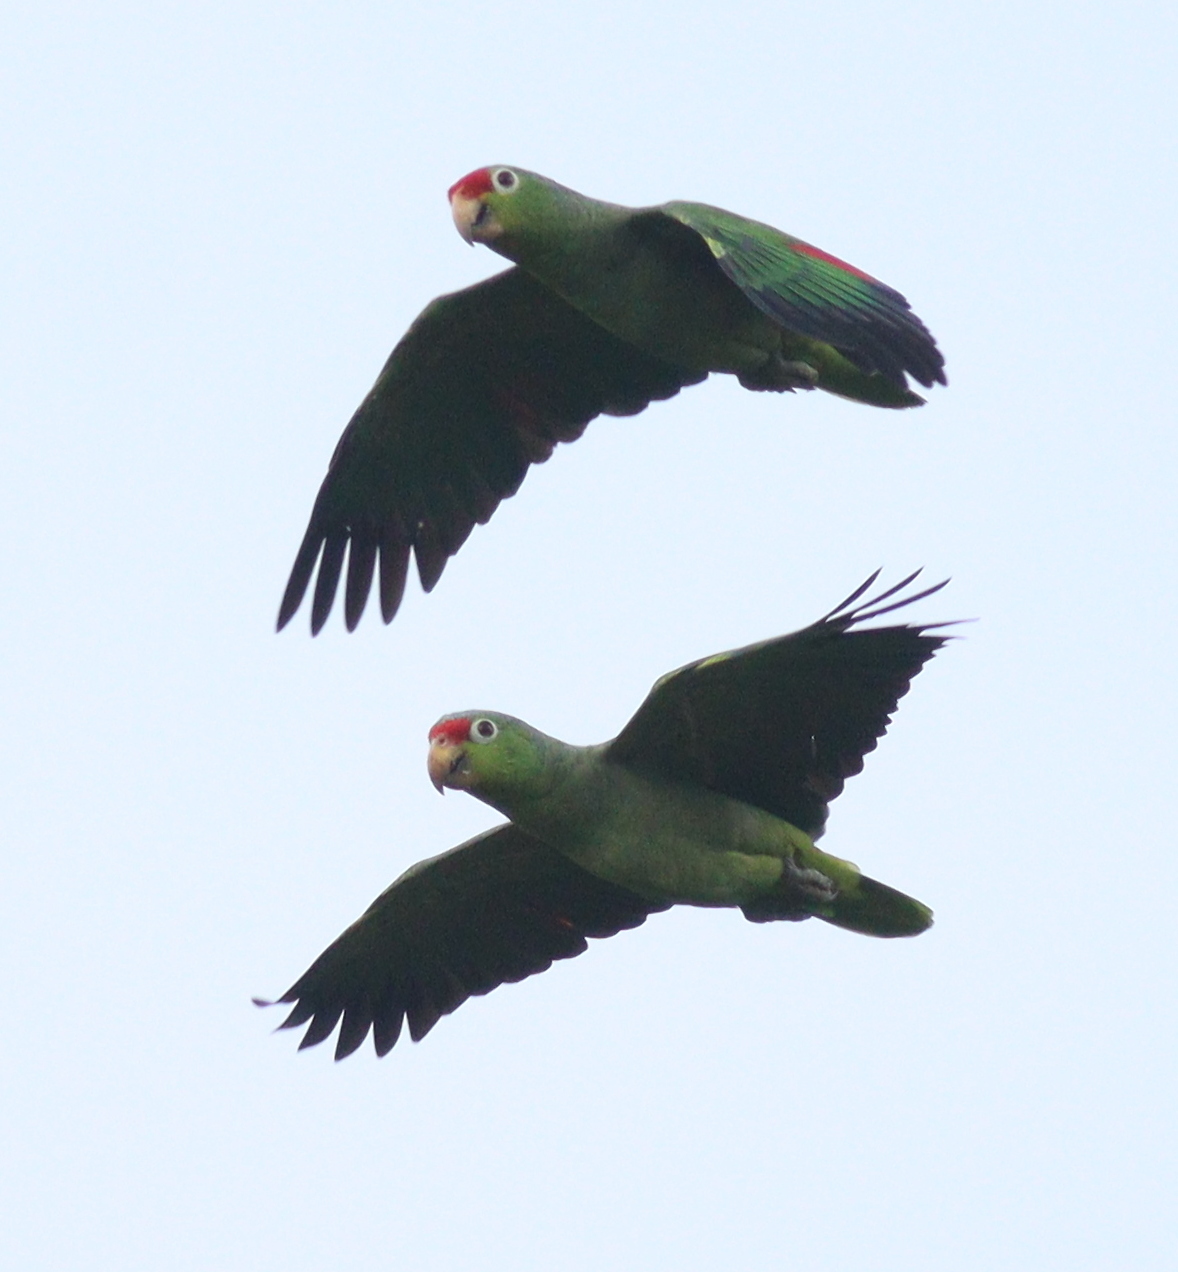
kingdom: Animalia
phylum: Chordata
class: Aves
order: Psittaciformes
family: Psittacidae
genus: Amazona
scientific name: Amazona autumnalis
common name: Red-lored amazon
